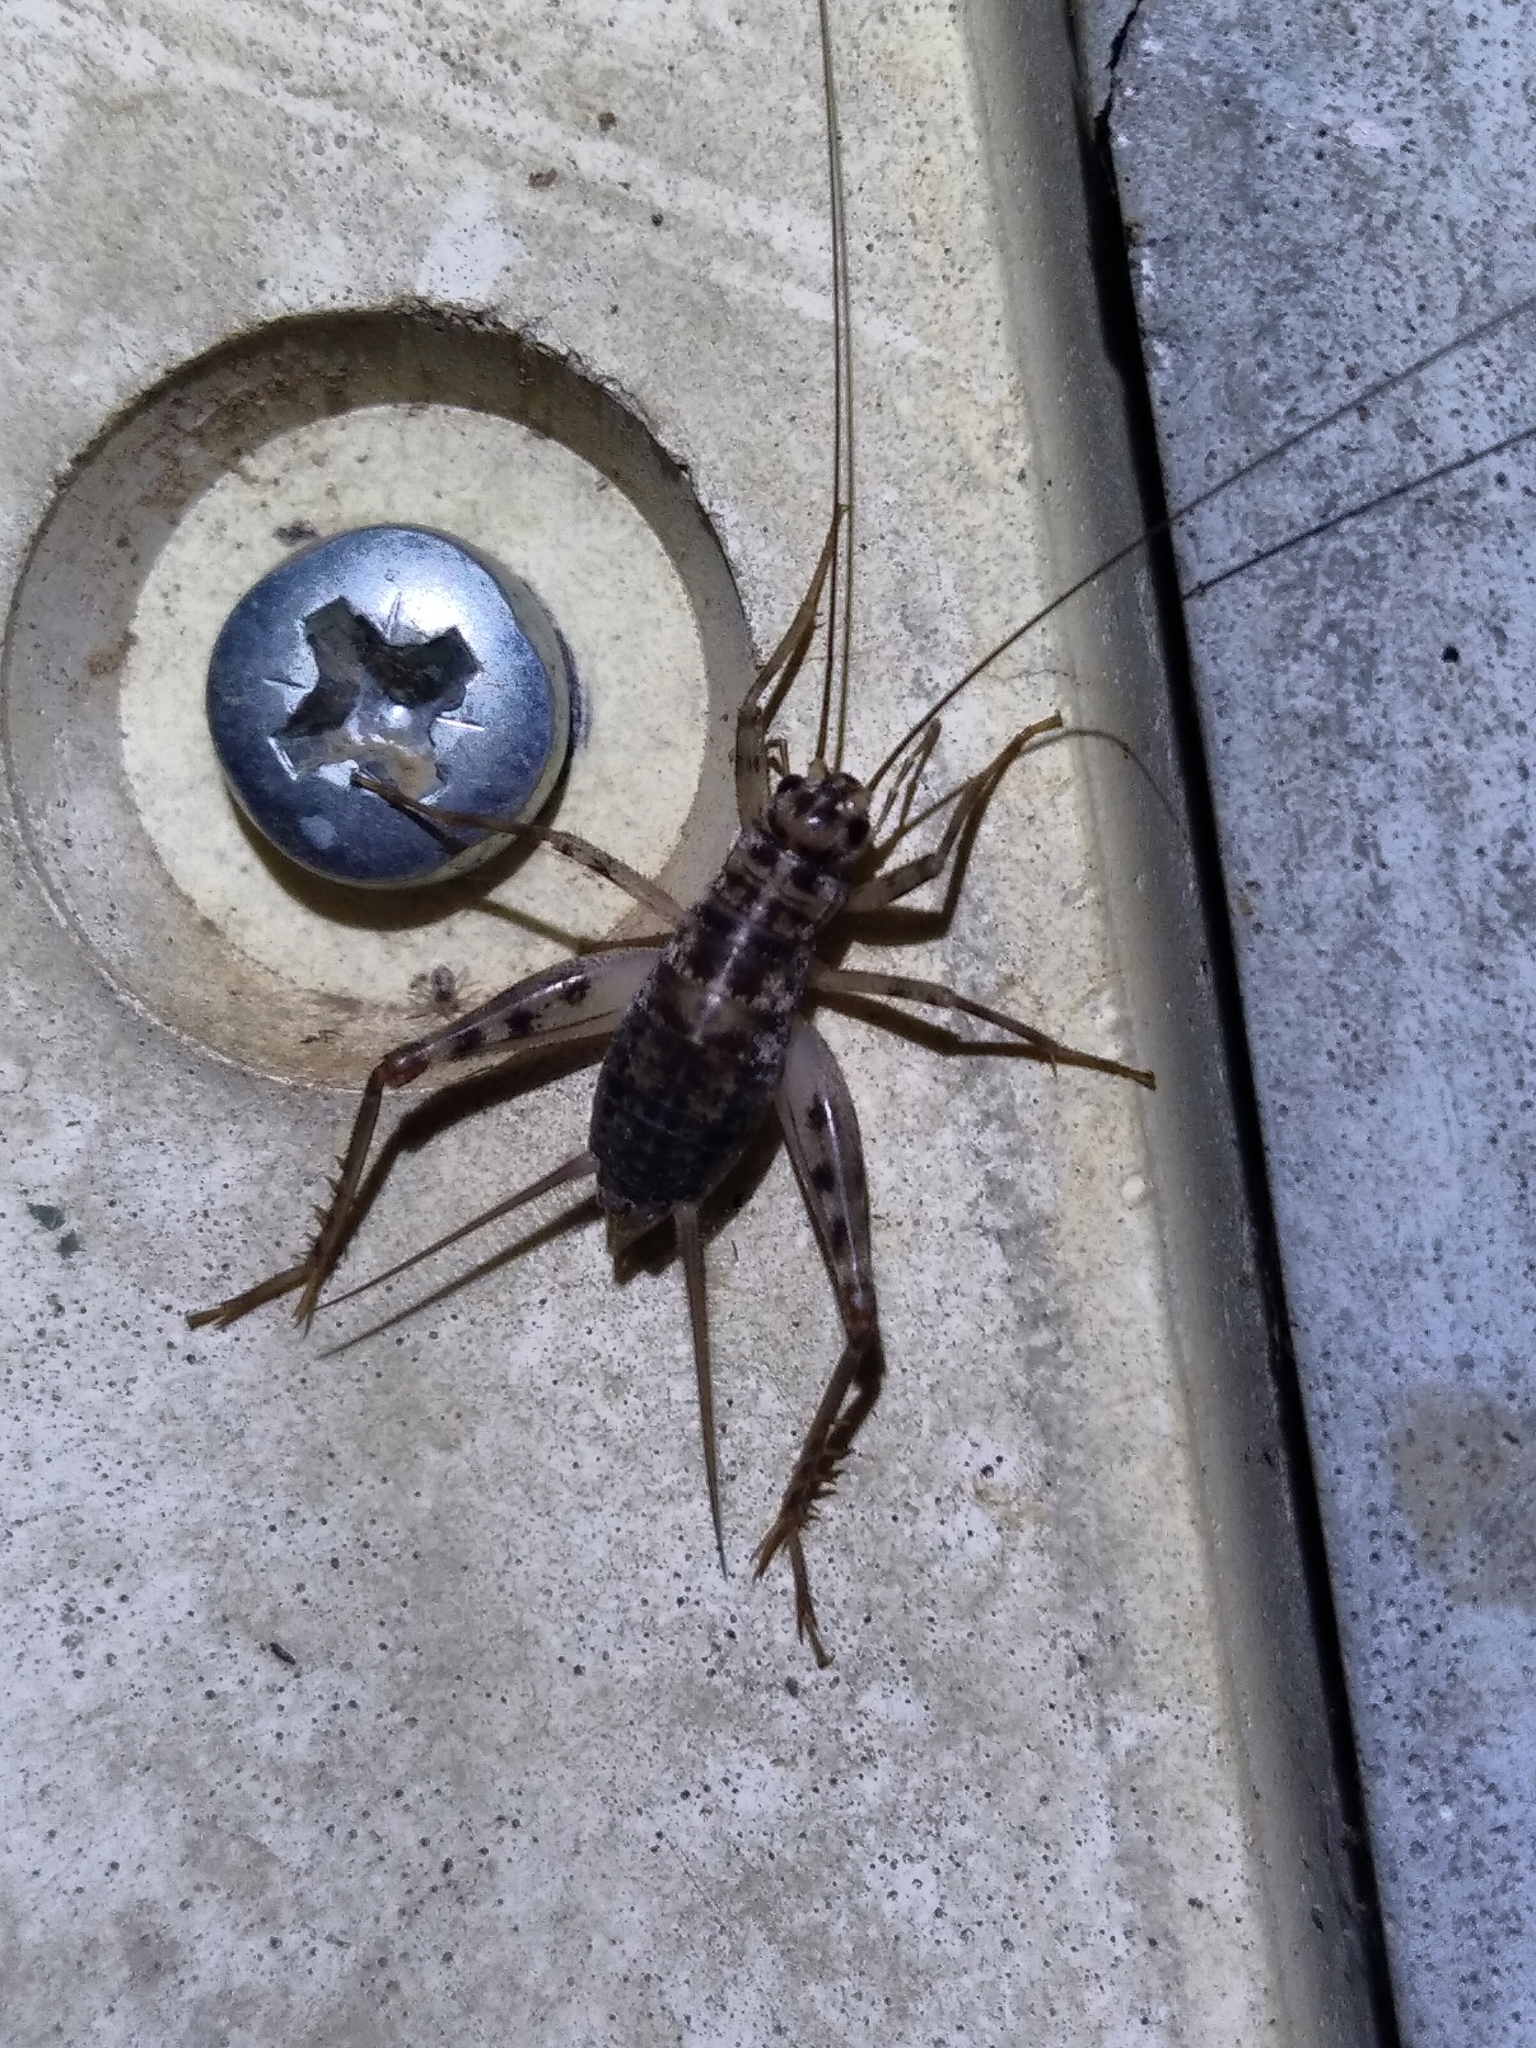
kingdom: Animalia
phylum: Arthropoda
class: Insecta
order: Orthoptera
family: Gryllidae
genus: Gryllomorpha
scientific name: Gryllomorpha dalmatina
